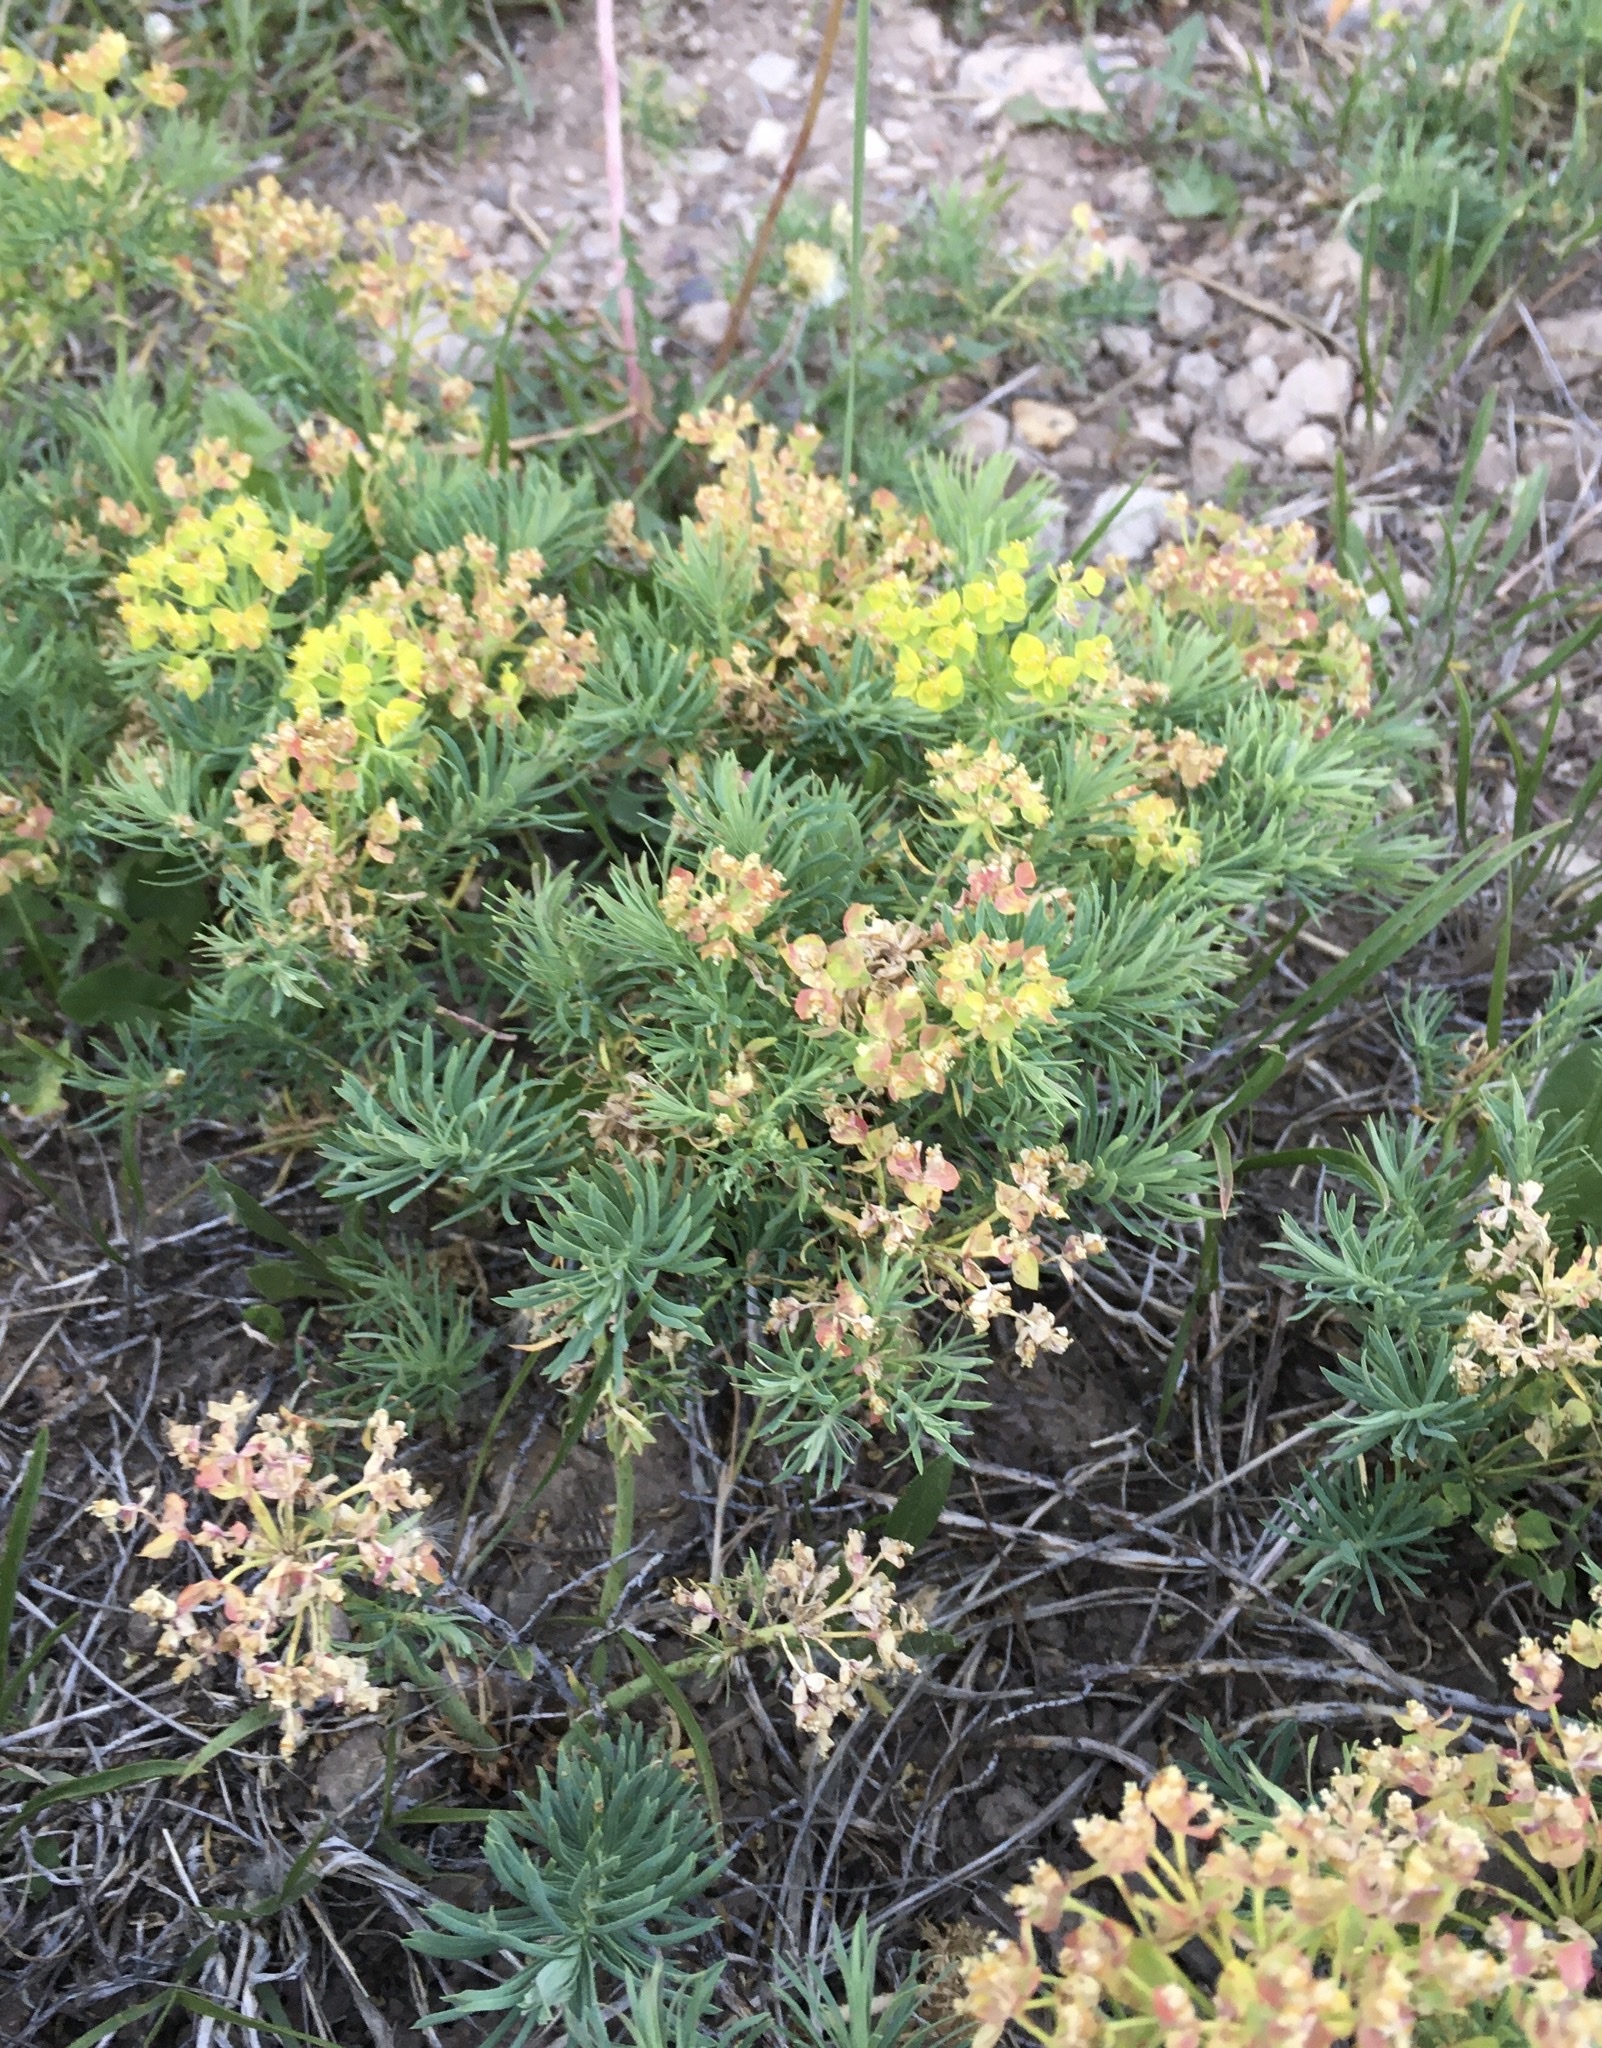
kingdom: Plantae
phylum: Tracheophyta
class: Magnoliopsida
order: Malpighiales
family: Euphorbiaceae
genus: Euphorbia
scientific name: Euphorbia cyparissias
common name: Cypress spurge
